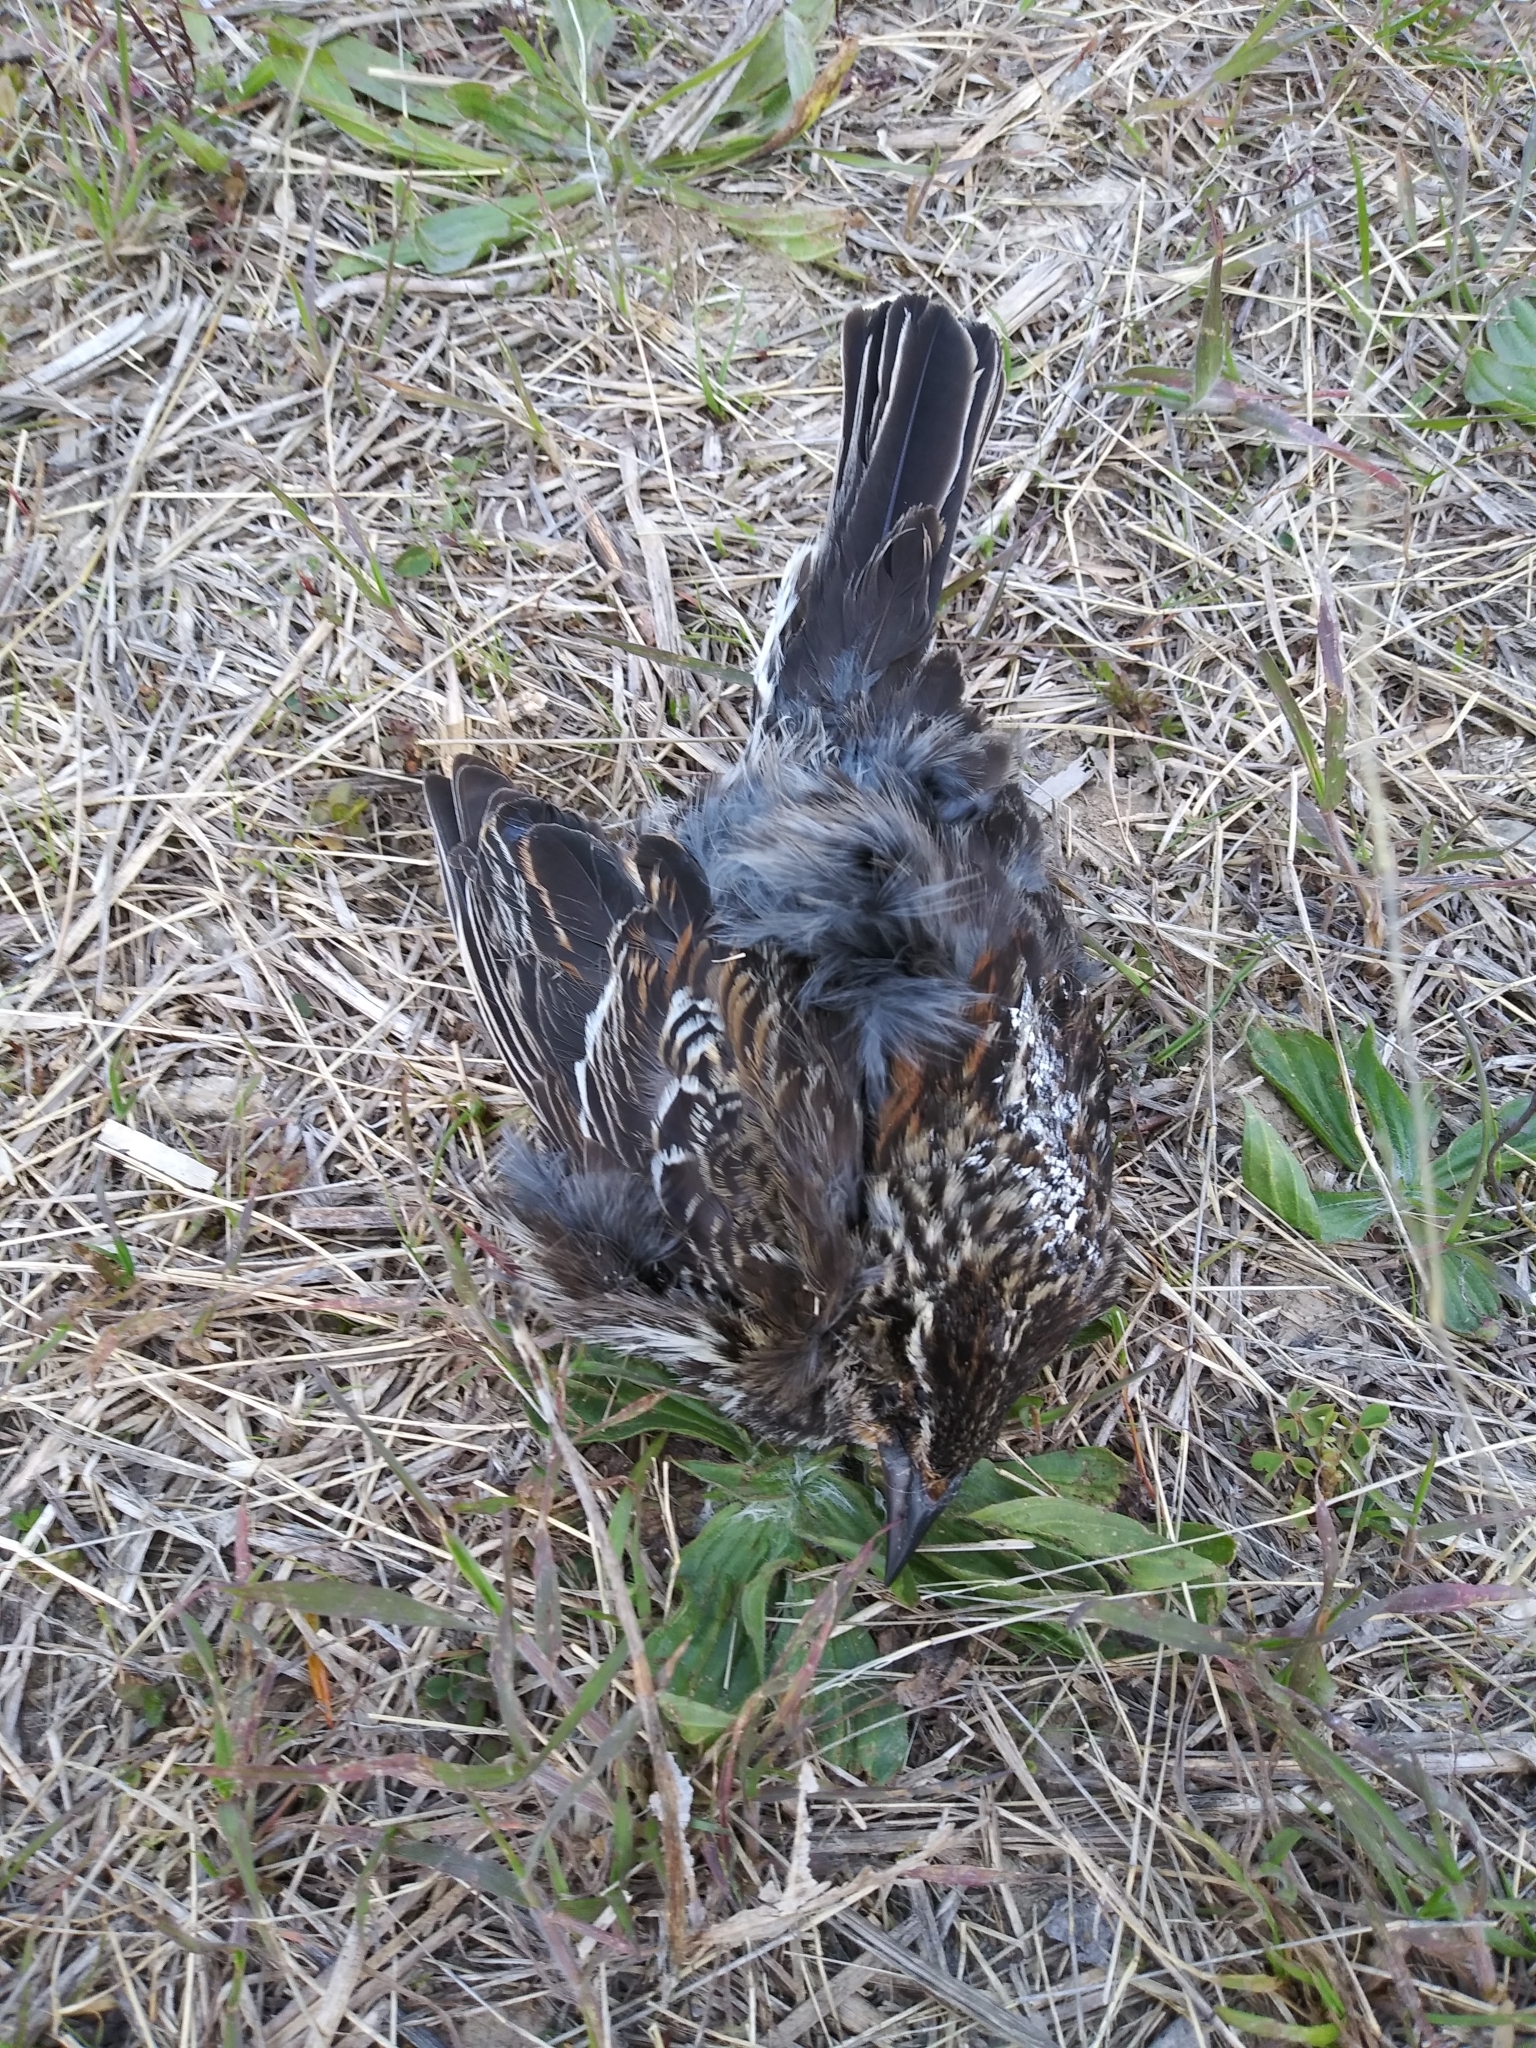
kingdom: Animalia
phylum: Chordata
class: Aves
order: Passeriformes
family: Icteridae
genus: Agelaius
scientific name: Agelaius phoeniceus
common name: Red-winged blackbird
